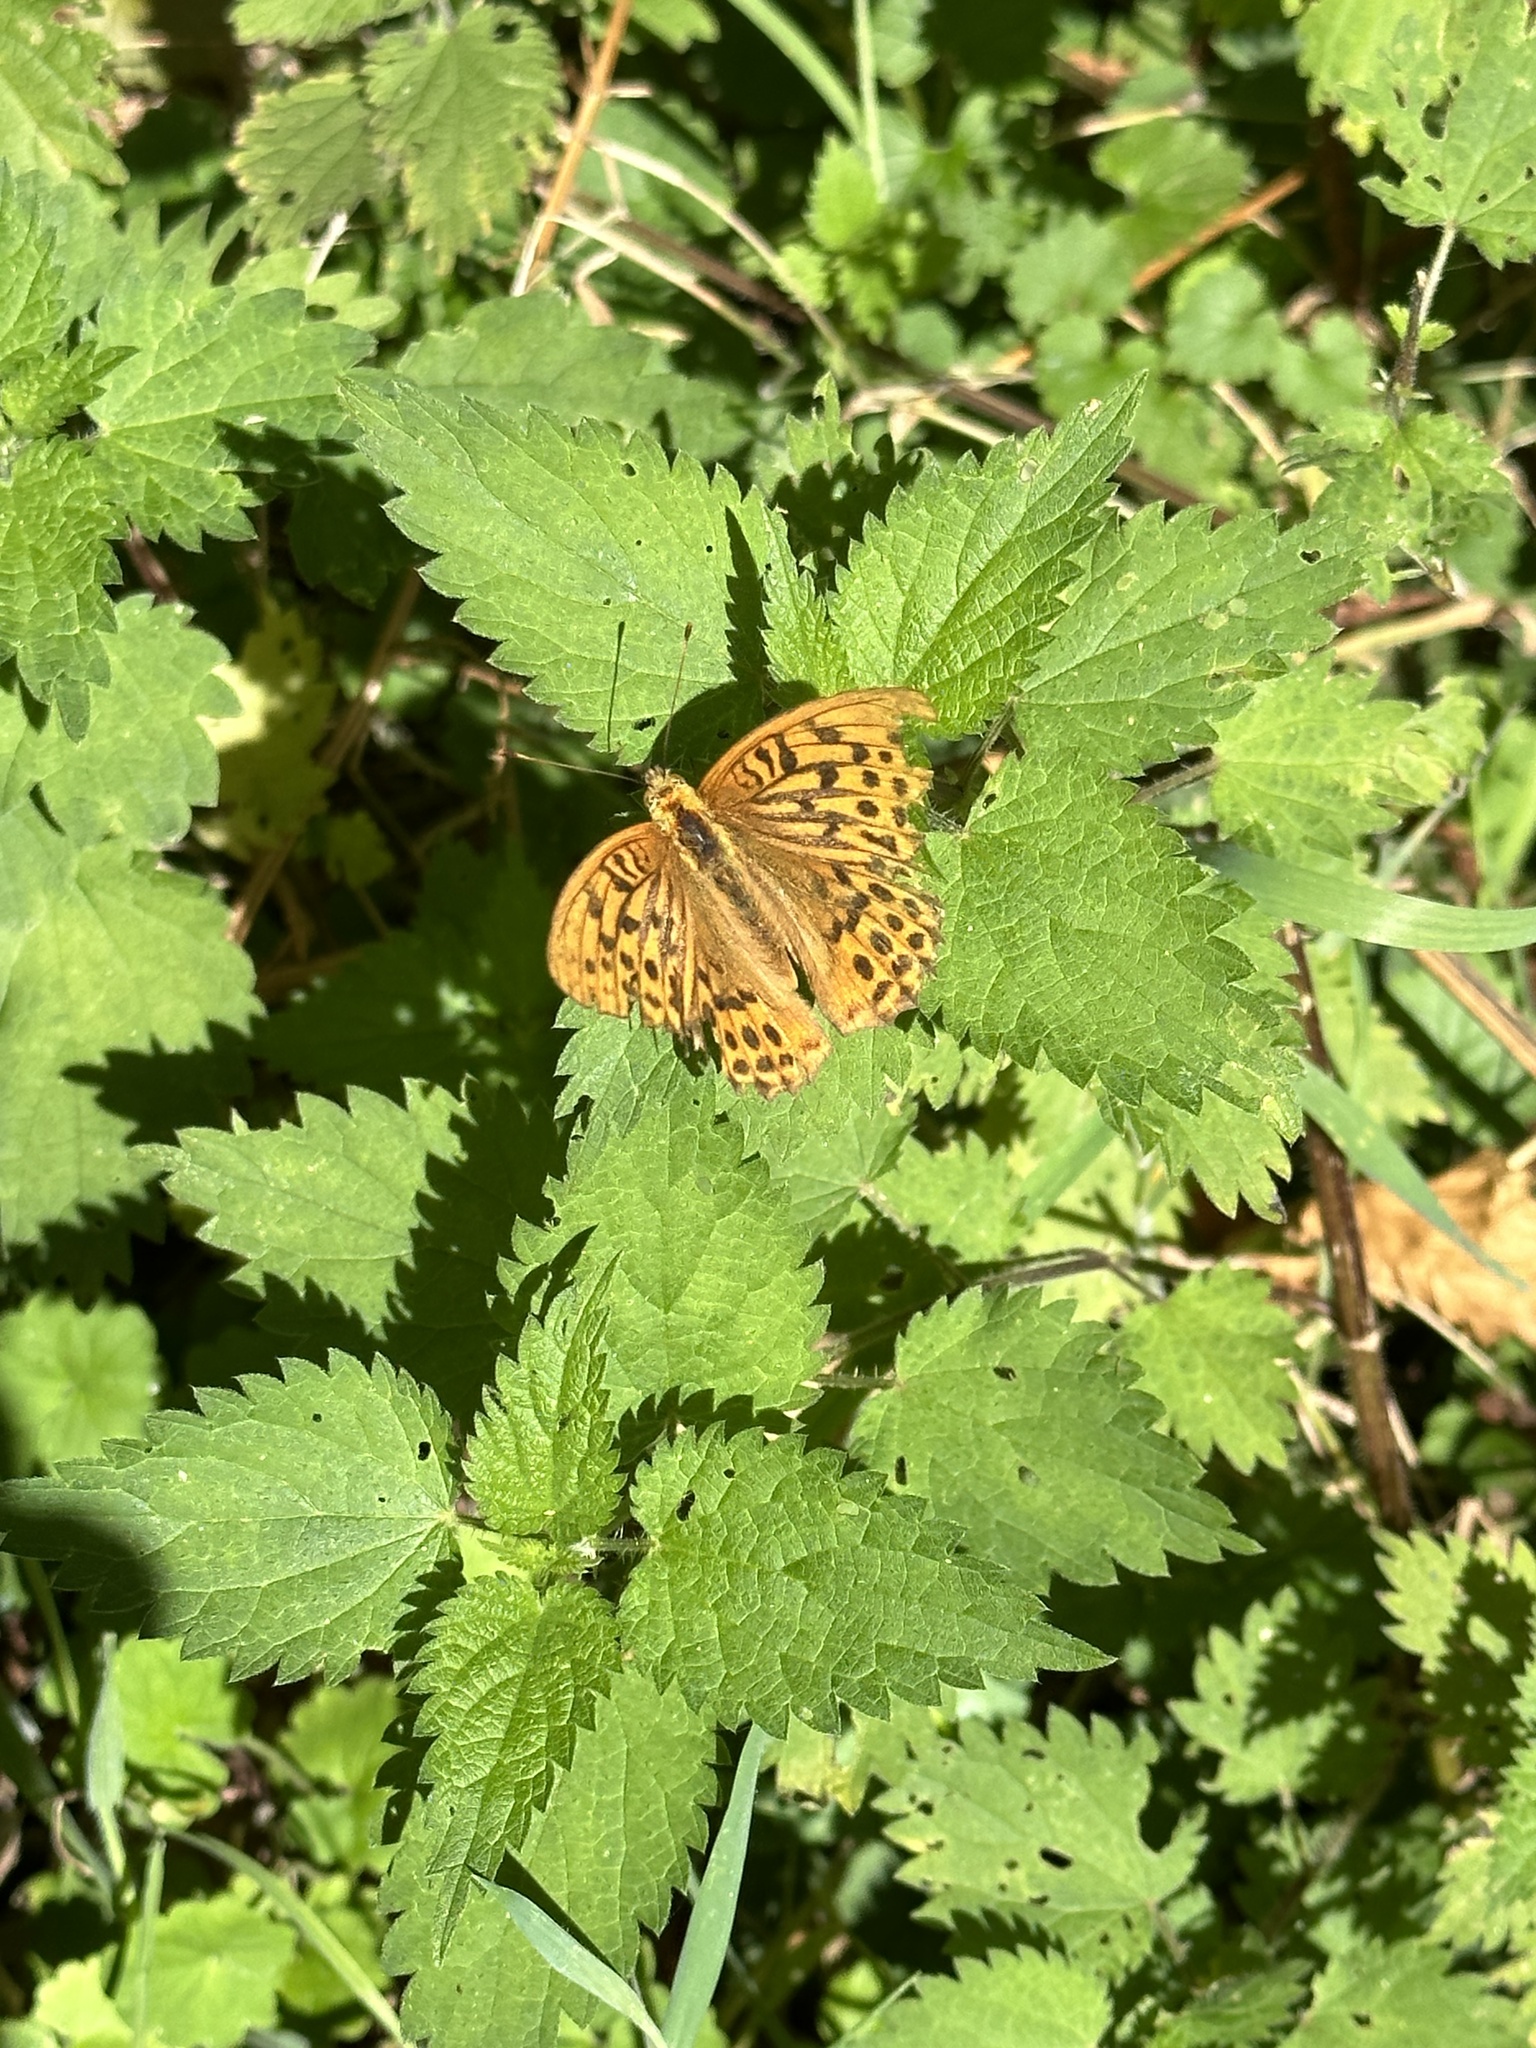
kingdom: Animalia
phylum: Arthropoda
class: Insecta
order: Lepidoptera
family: Nymphalidae
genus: Argynnis
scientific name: Argynnis paphia
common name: Silver-washed fritillary
